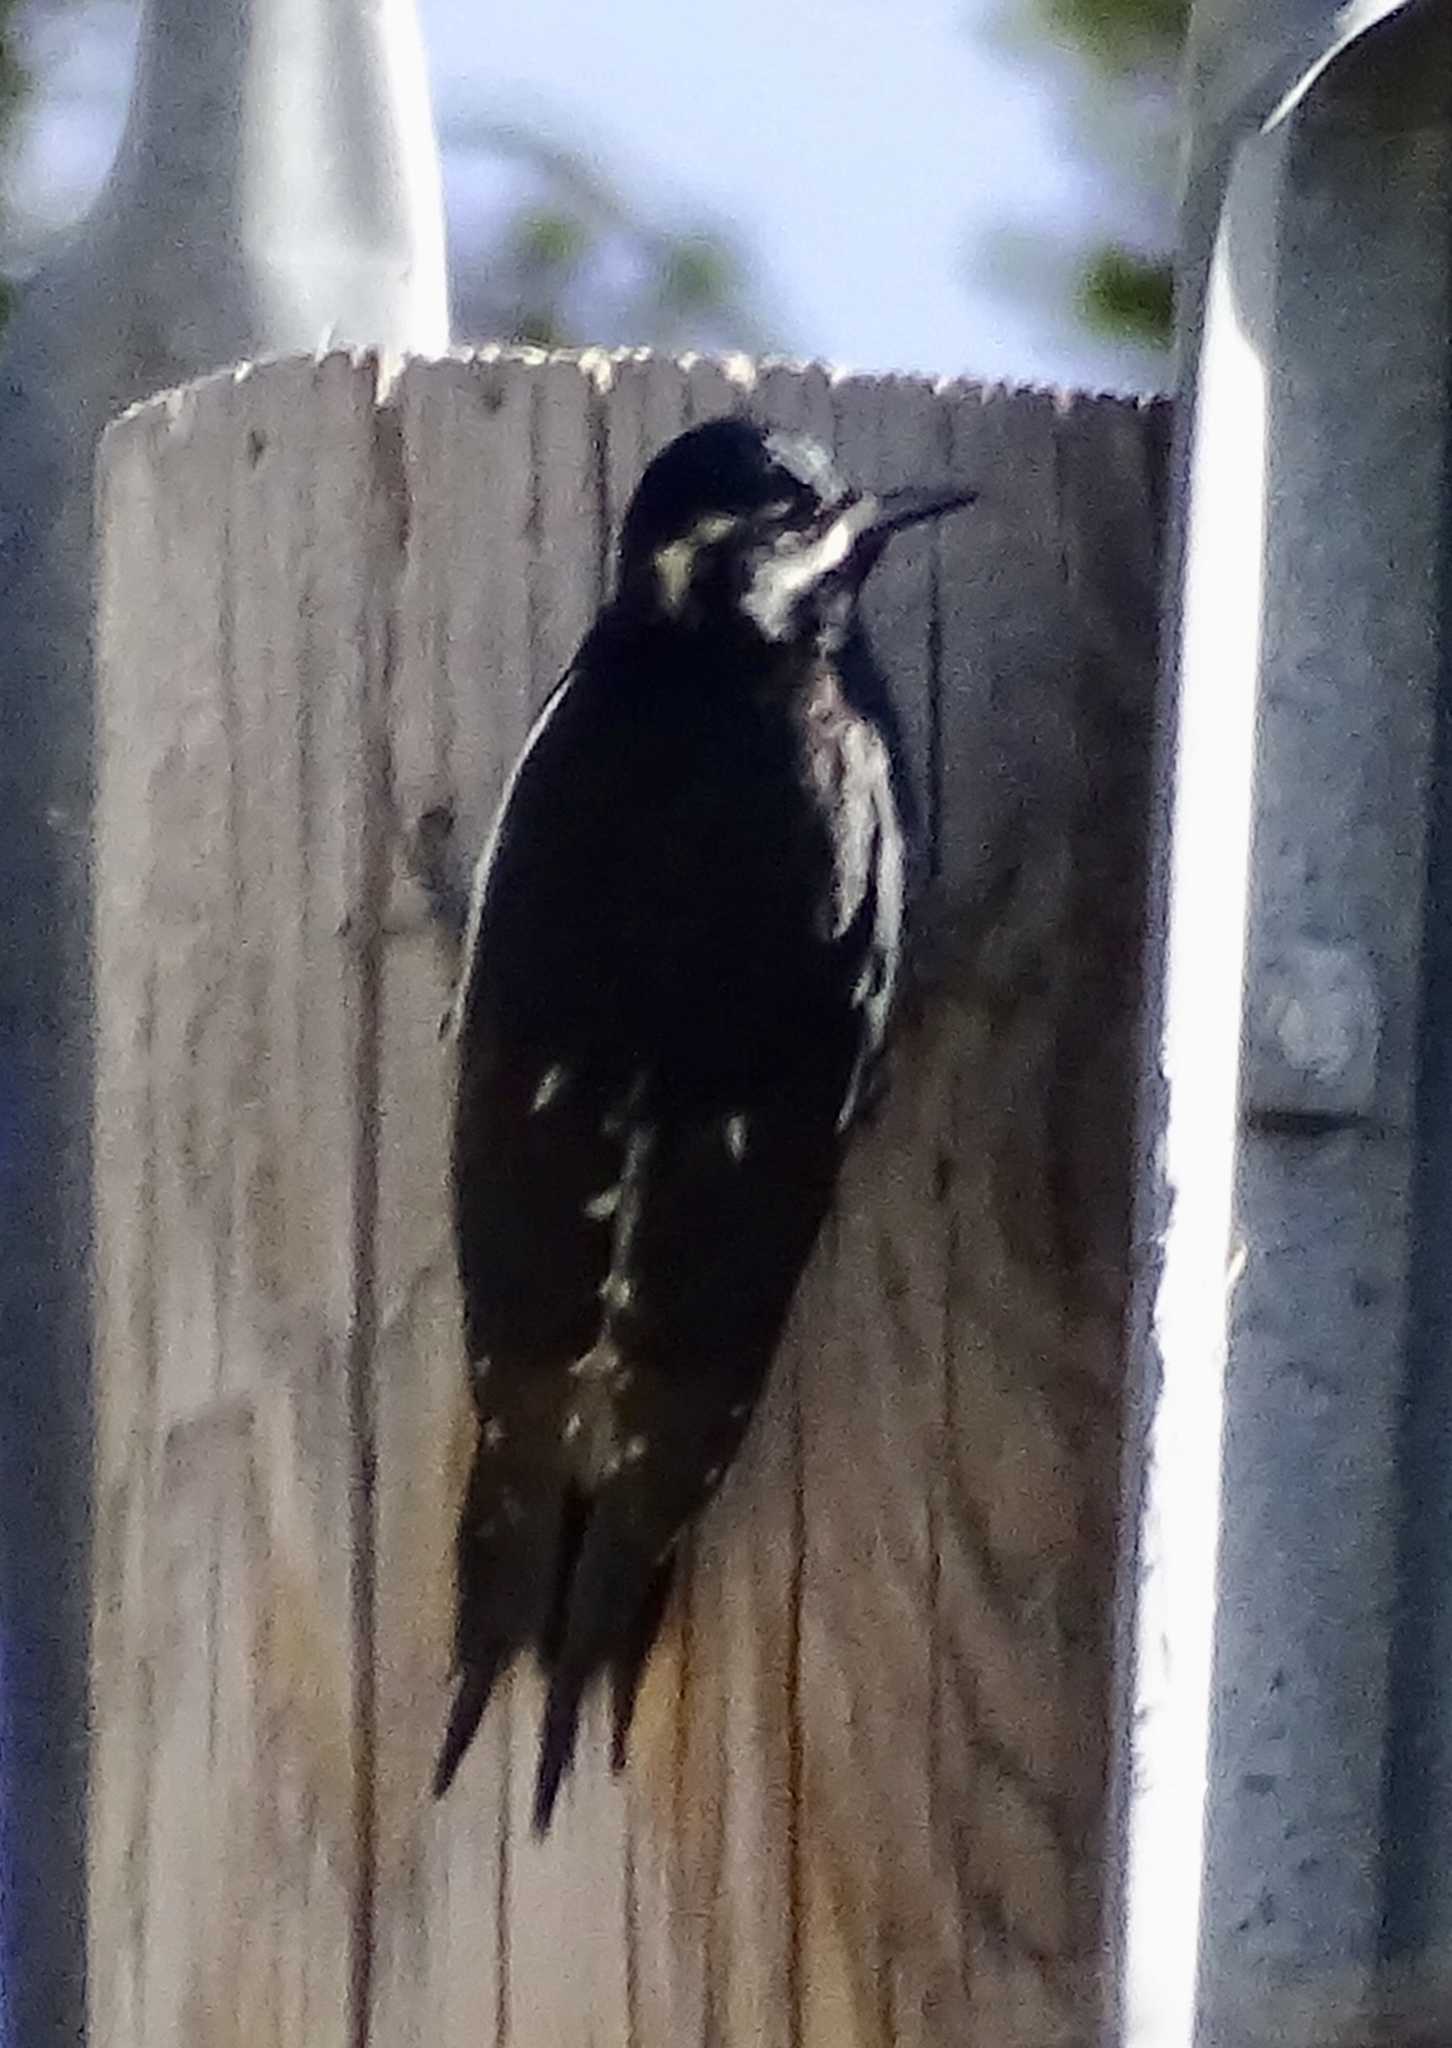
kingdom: Animalia
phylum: Chordata
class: Aves
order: Piciformes
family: Picidae
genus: Sphyrapicus
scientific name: Sphyrapicus thyroideus
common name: Williamson's sapsucker
